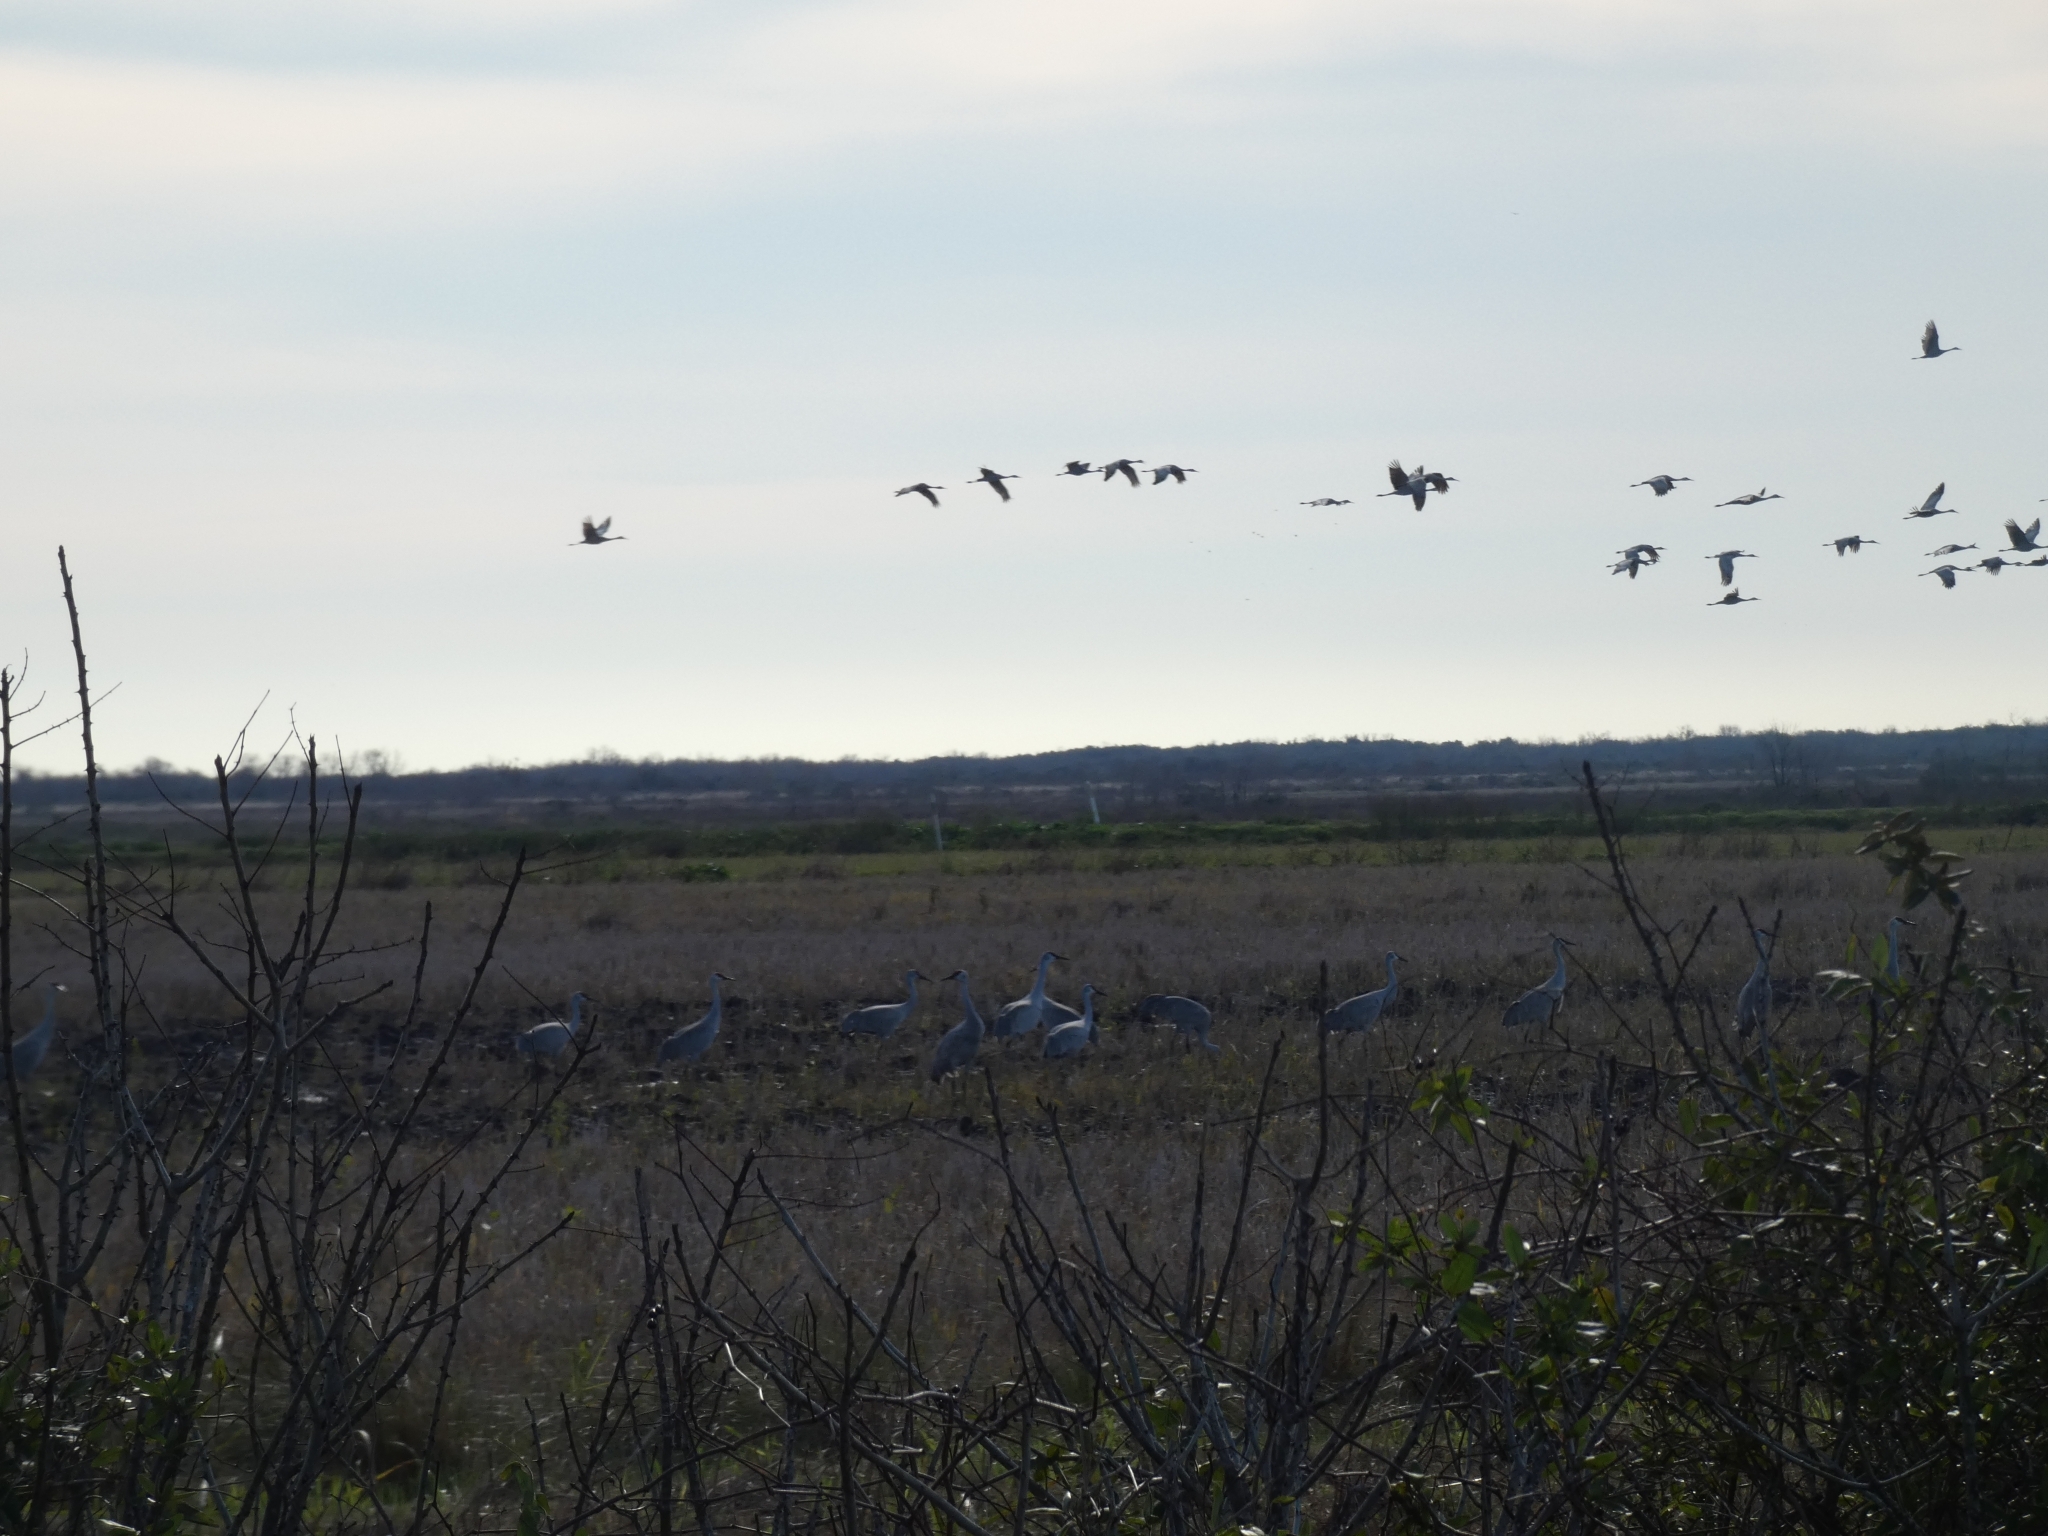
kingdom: Animalia
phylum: Chordata
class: Aves
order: Gruiformes
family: Gruidae
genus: Grus
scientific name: Grus canadensis
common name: Sandhill crane
